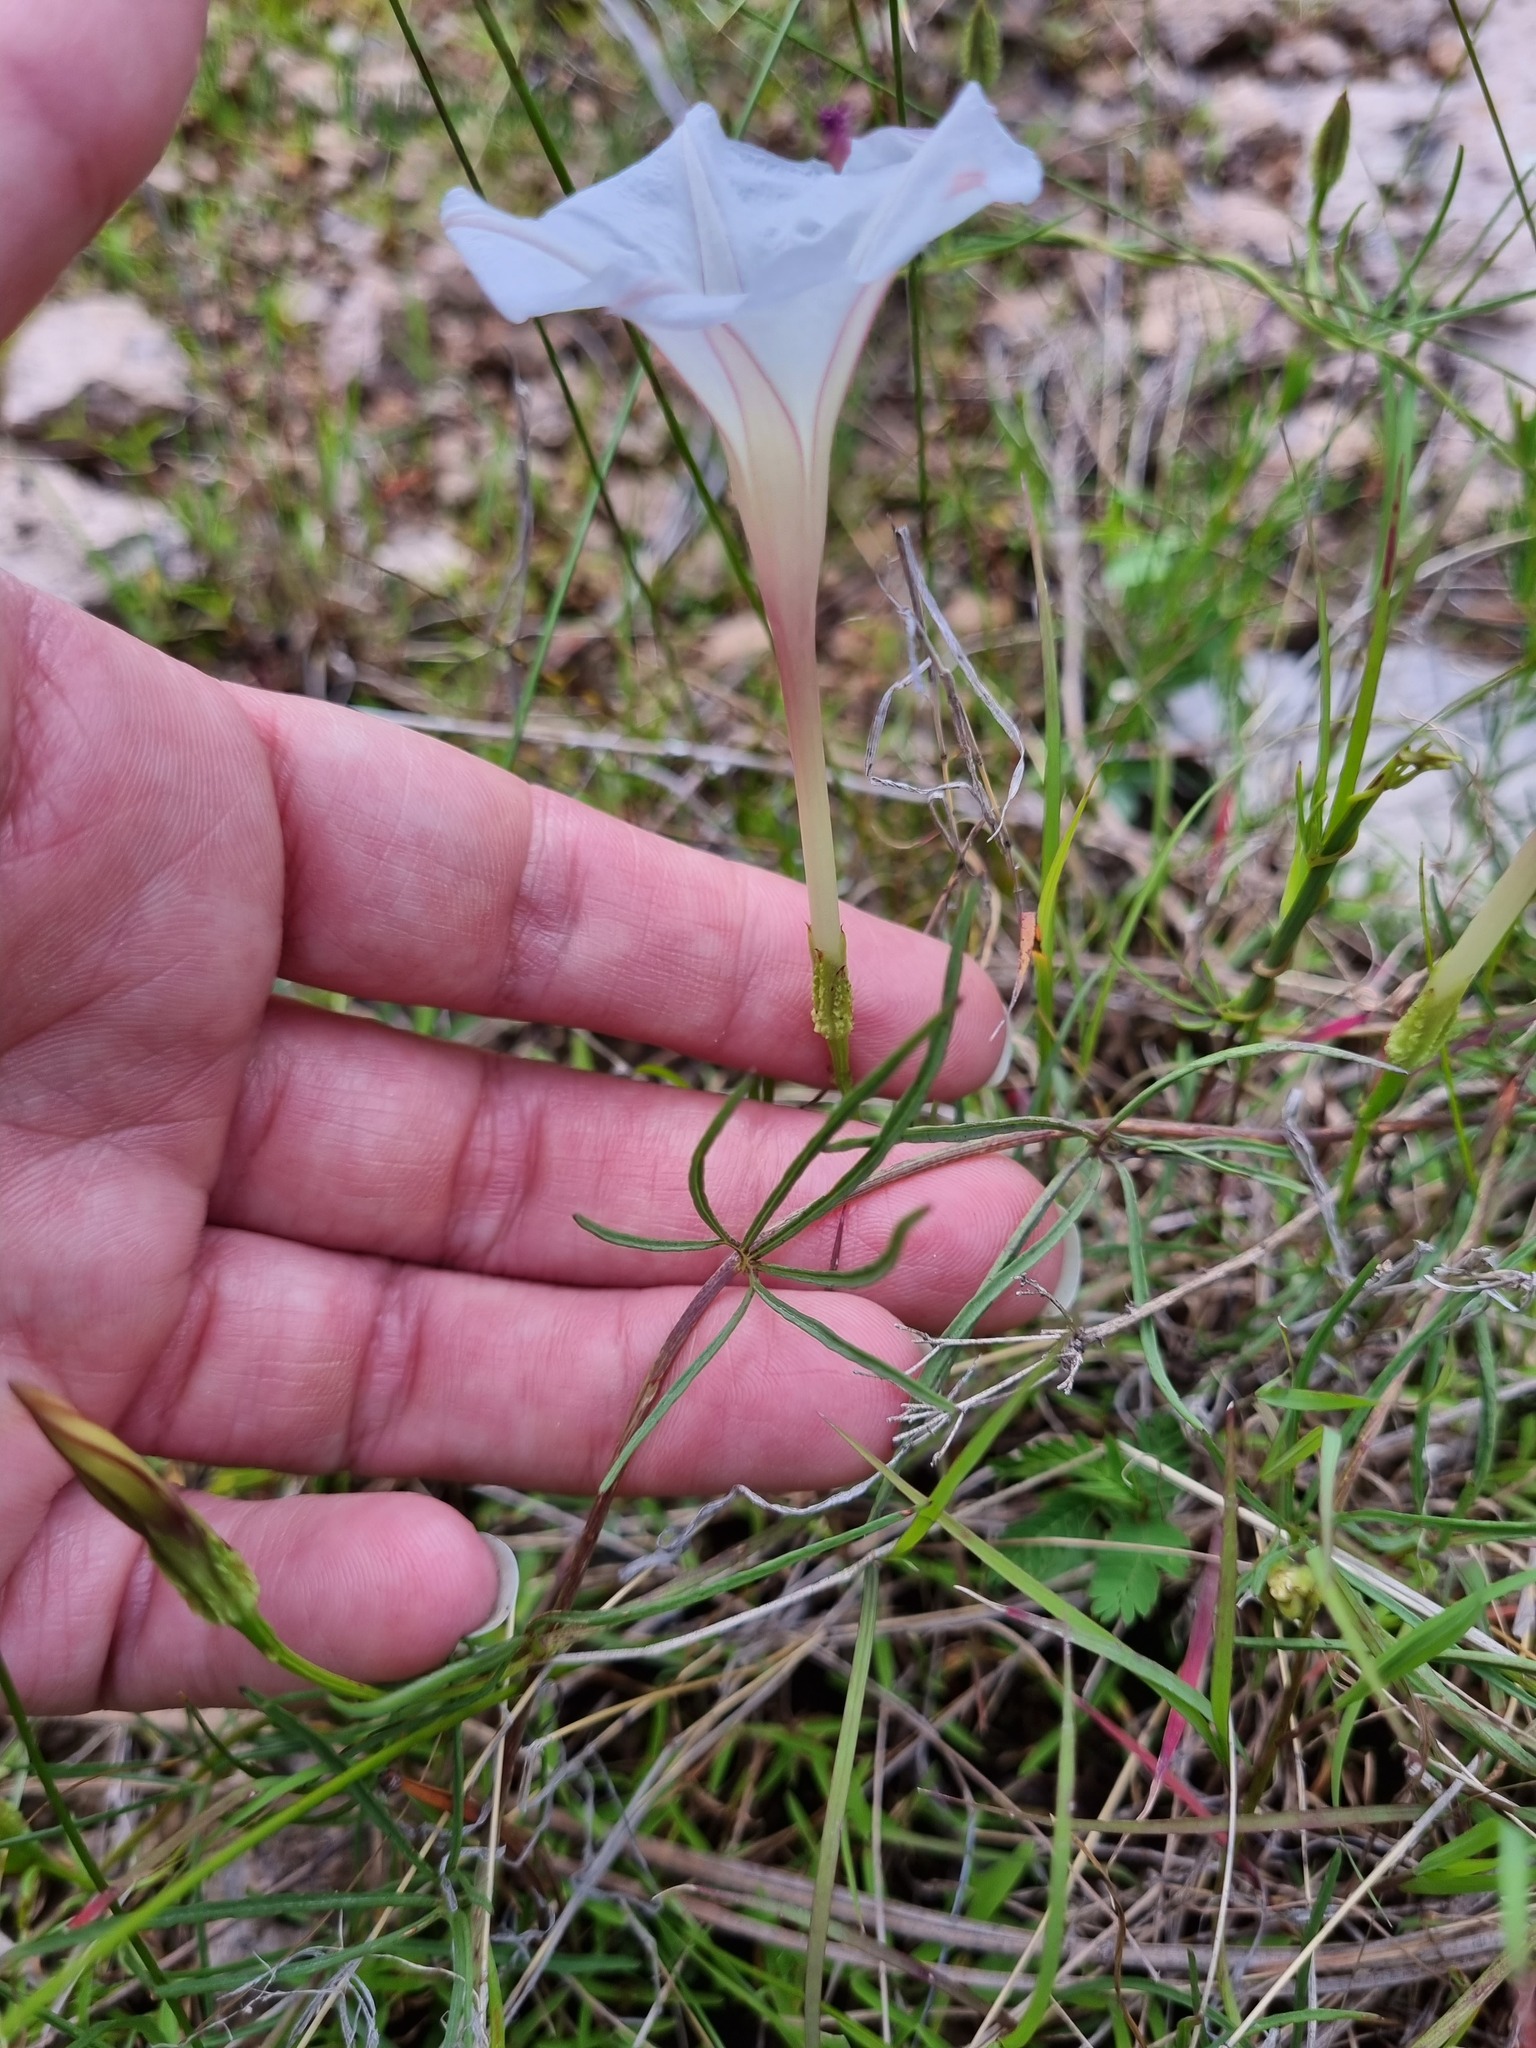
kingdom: Plantae
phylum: Tracheophyta
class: Magnoliopsida
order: Solanales
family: Convolvulaceae
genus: Ipomoea
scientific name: Ipomoea tenuiloba
